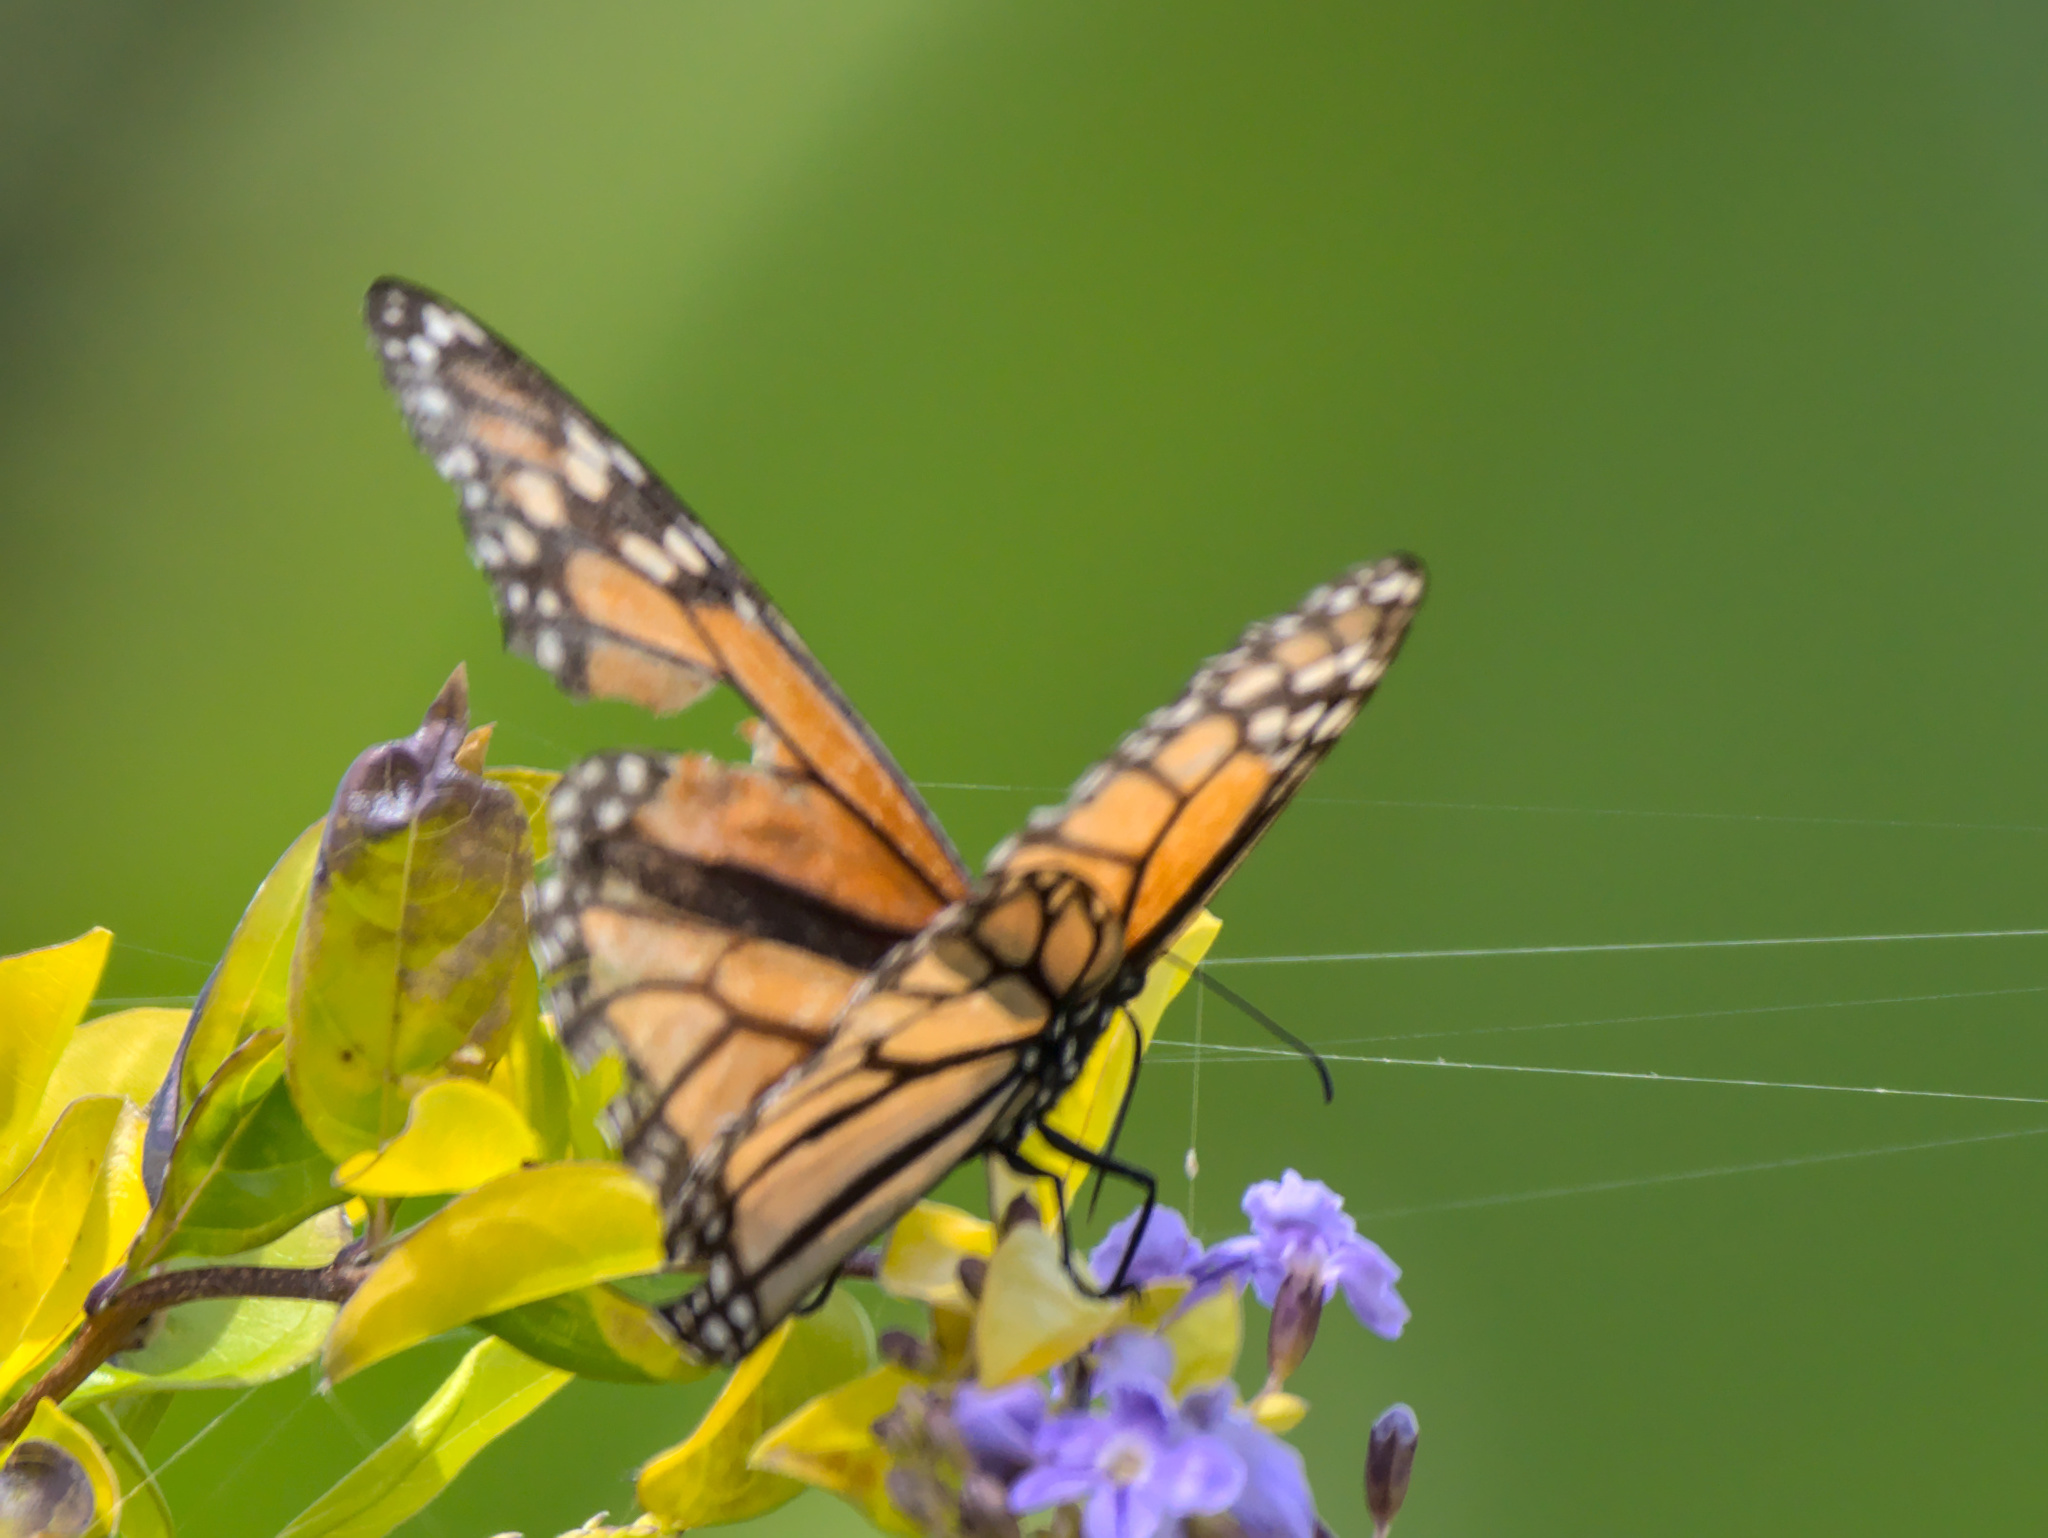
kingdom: Animalia
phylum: Arthropoda
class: Insecta
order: Lepidoptera
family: Nymphalidae
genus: Danaus
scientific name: Danaus plexippus
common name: Monarch
